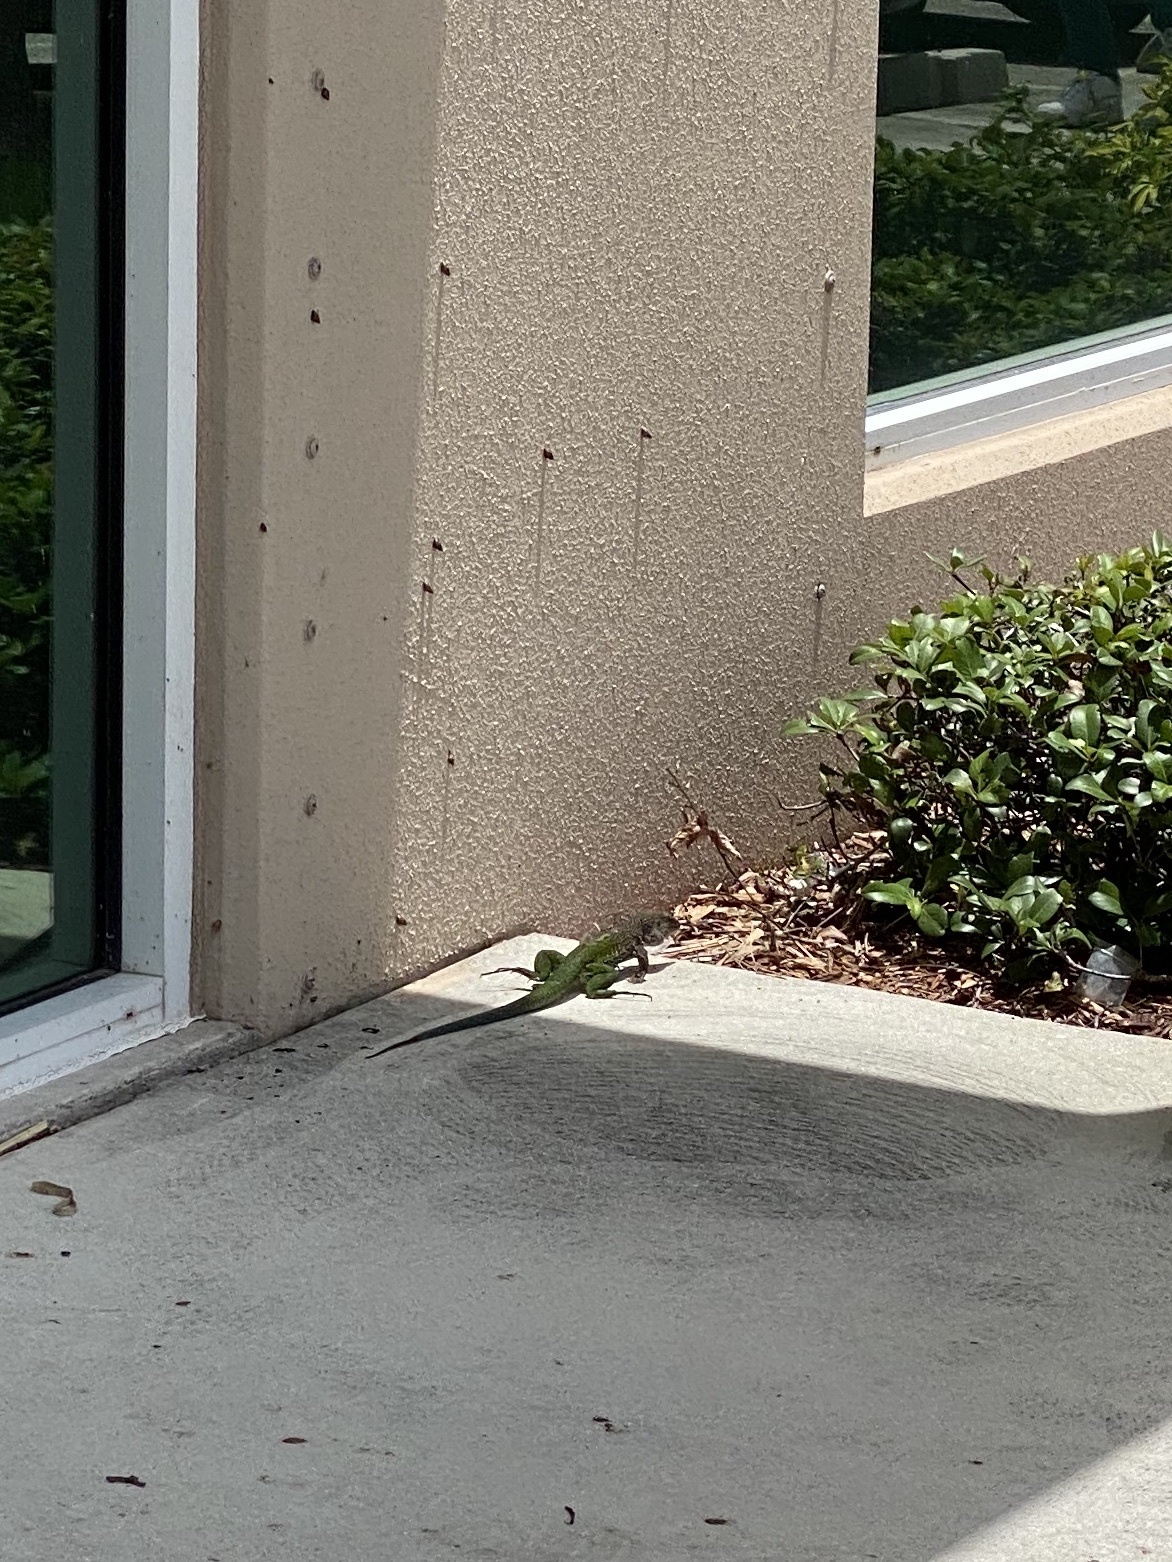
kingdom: Animalia
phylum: Chordata
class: Squamata
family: Teiidae
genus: Ameiva
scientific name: Ameiva ameiva
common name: Giant ameiva
